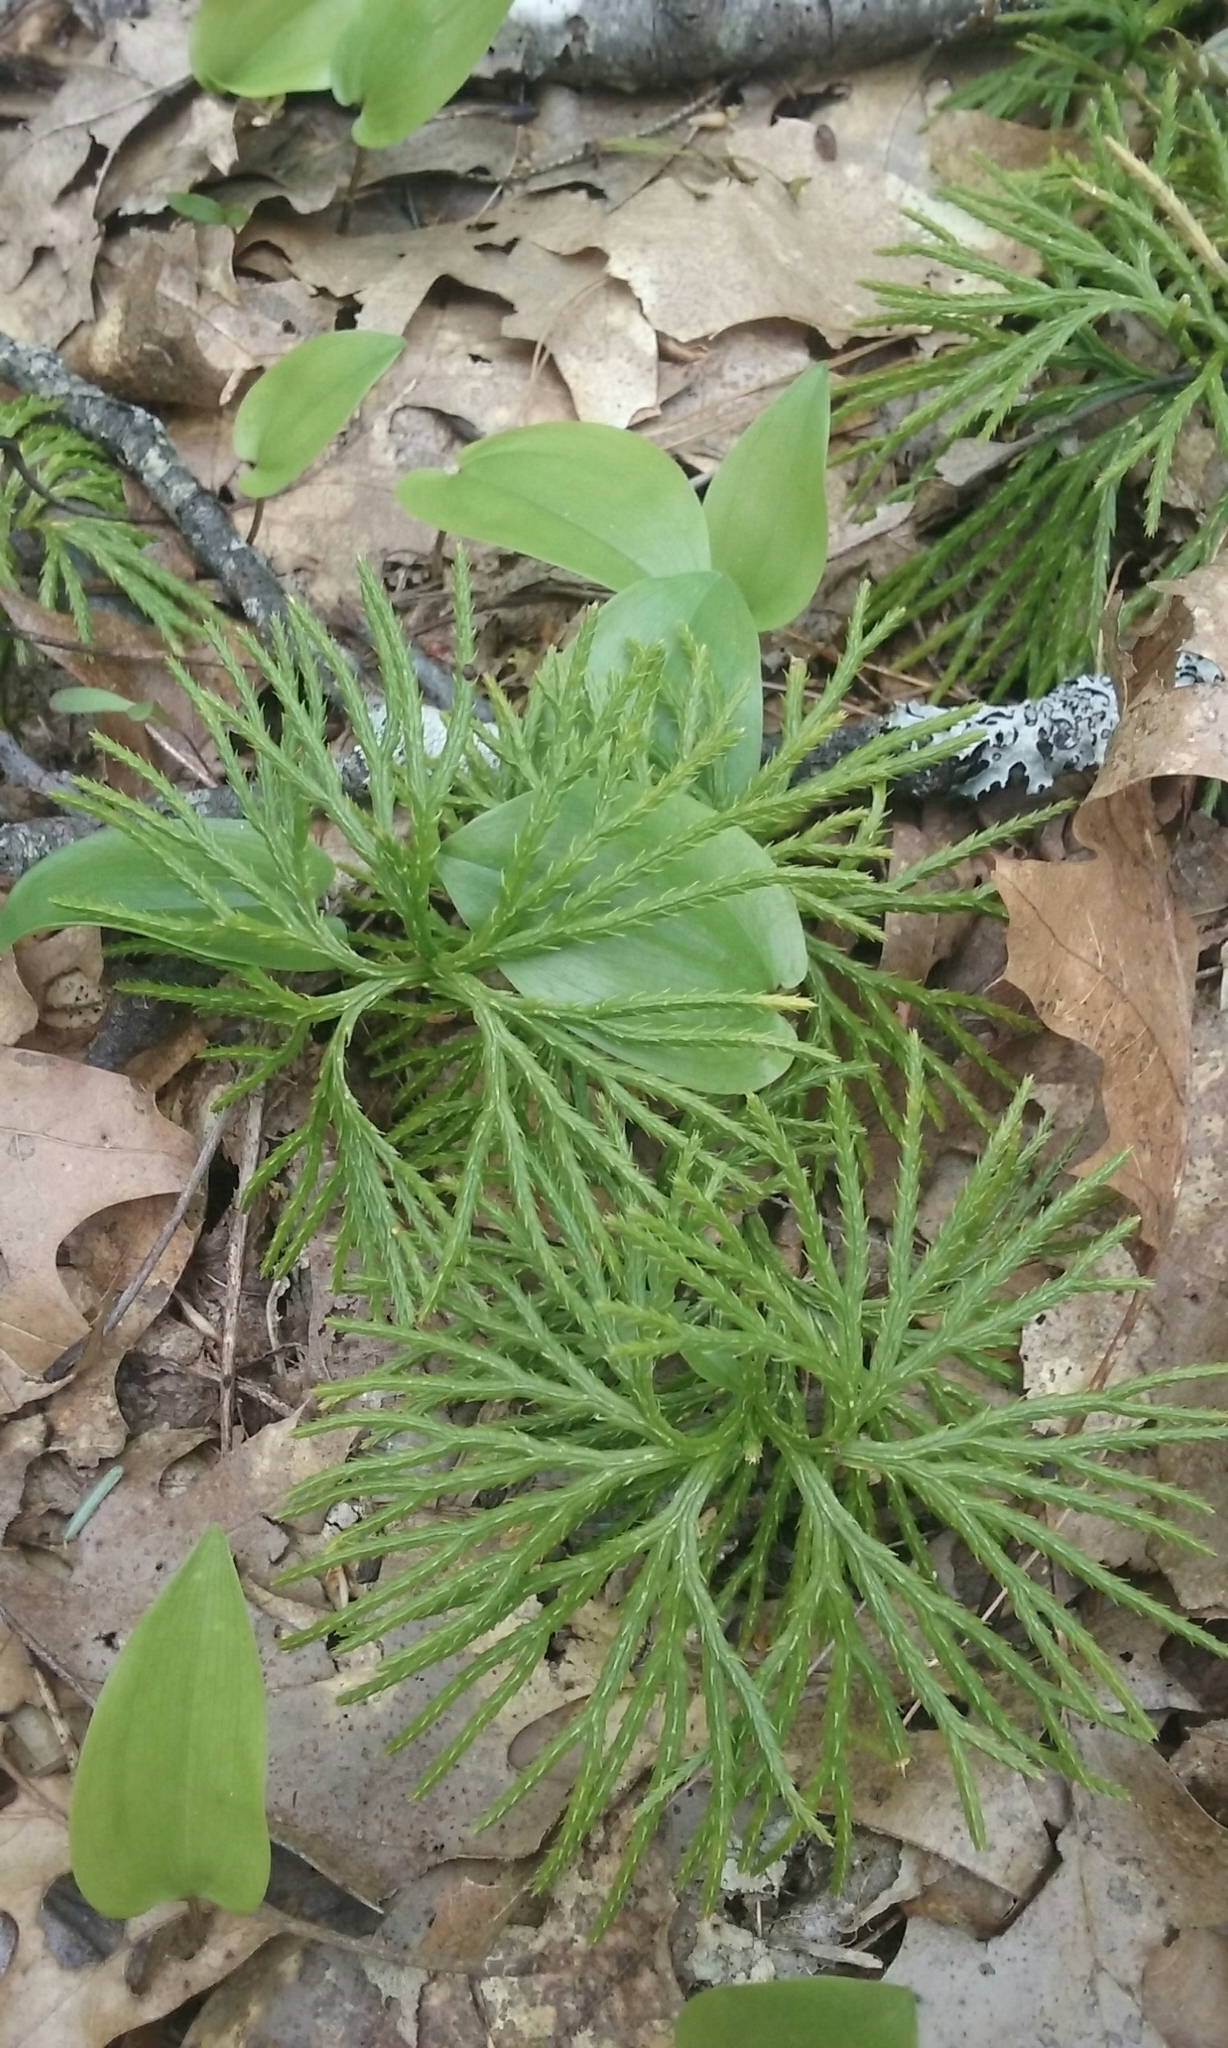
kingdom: Plantae
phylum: Tracheophyta
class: Lycopodiopsida
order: Lycopodiales
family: Lycopodiaceae
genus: Diphasiastrum
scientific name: Diphasiastrum digitatum
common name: Southern running-pine
